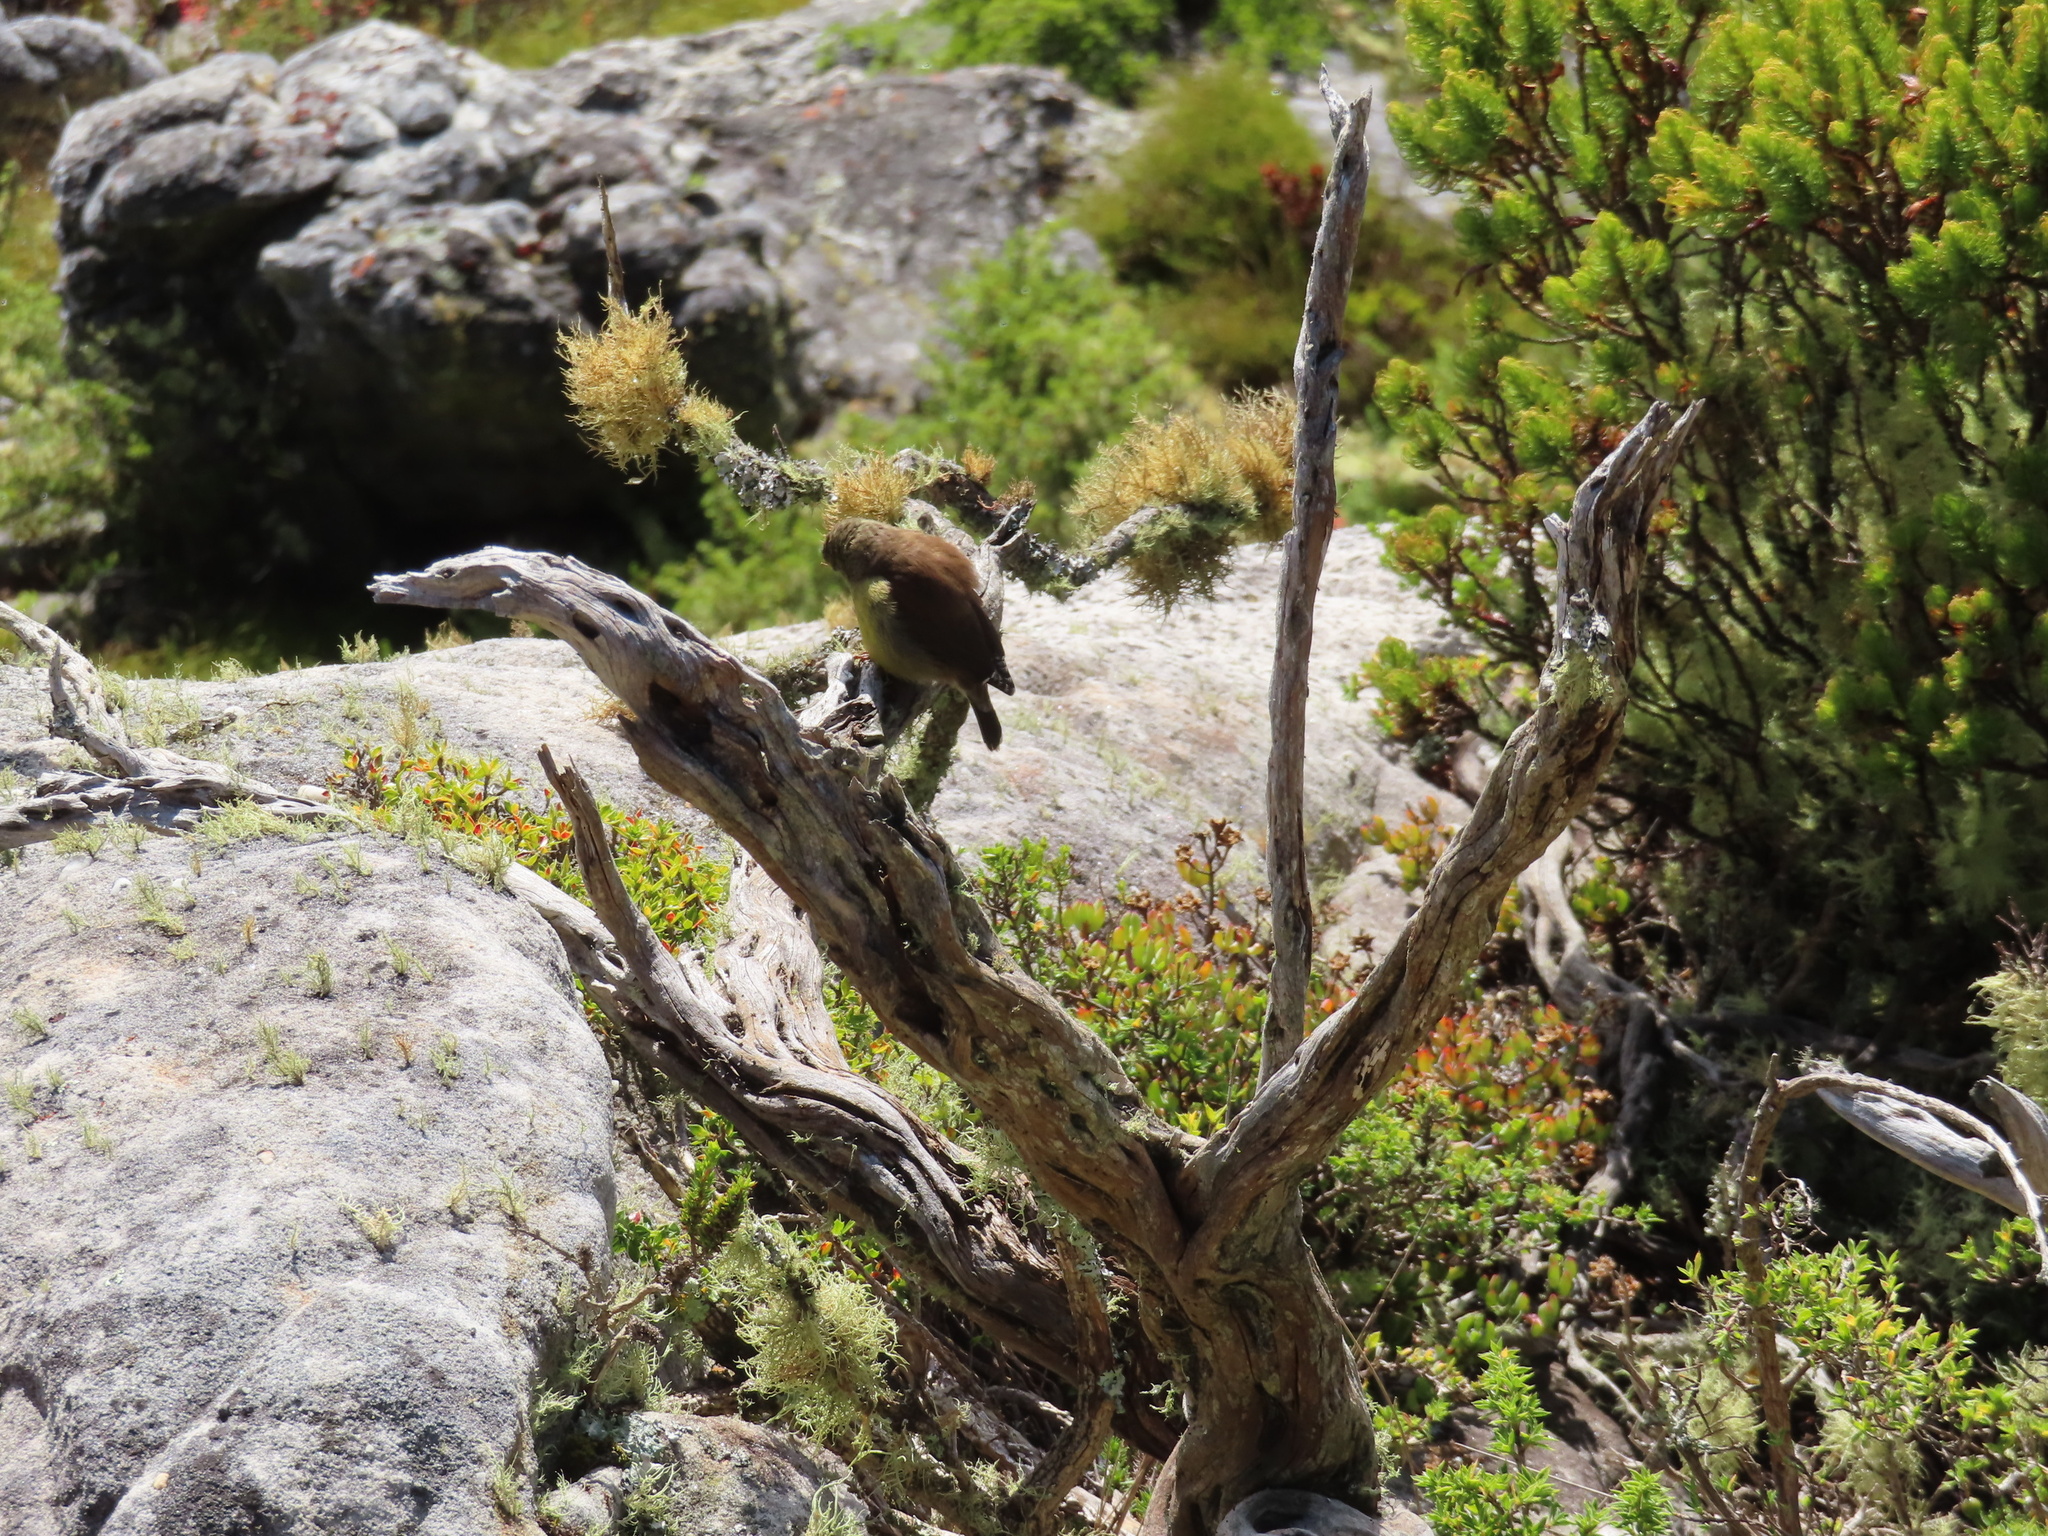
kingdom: Animalia
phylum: Chordata
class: Aves
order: Passeriformes
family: Fringillidae
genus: Crithagra
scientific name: Crithagra totta
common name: Cape siskin
